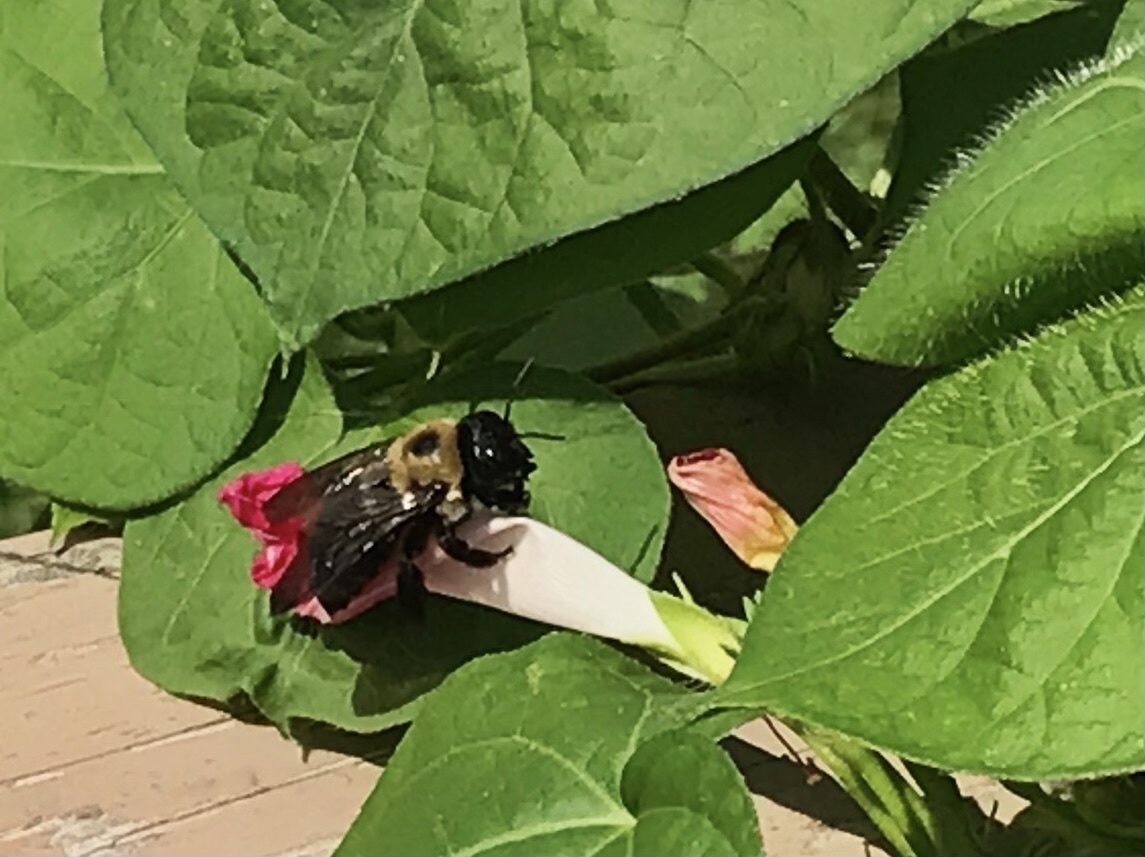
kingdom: Animalia
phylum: Arthropoda
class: Insecta
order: Hymenoptera
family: Apidae
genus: Xylocopa
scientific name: Xylocopa virginica
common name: Carpenter bee
